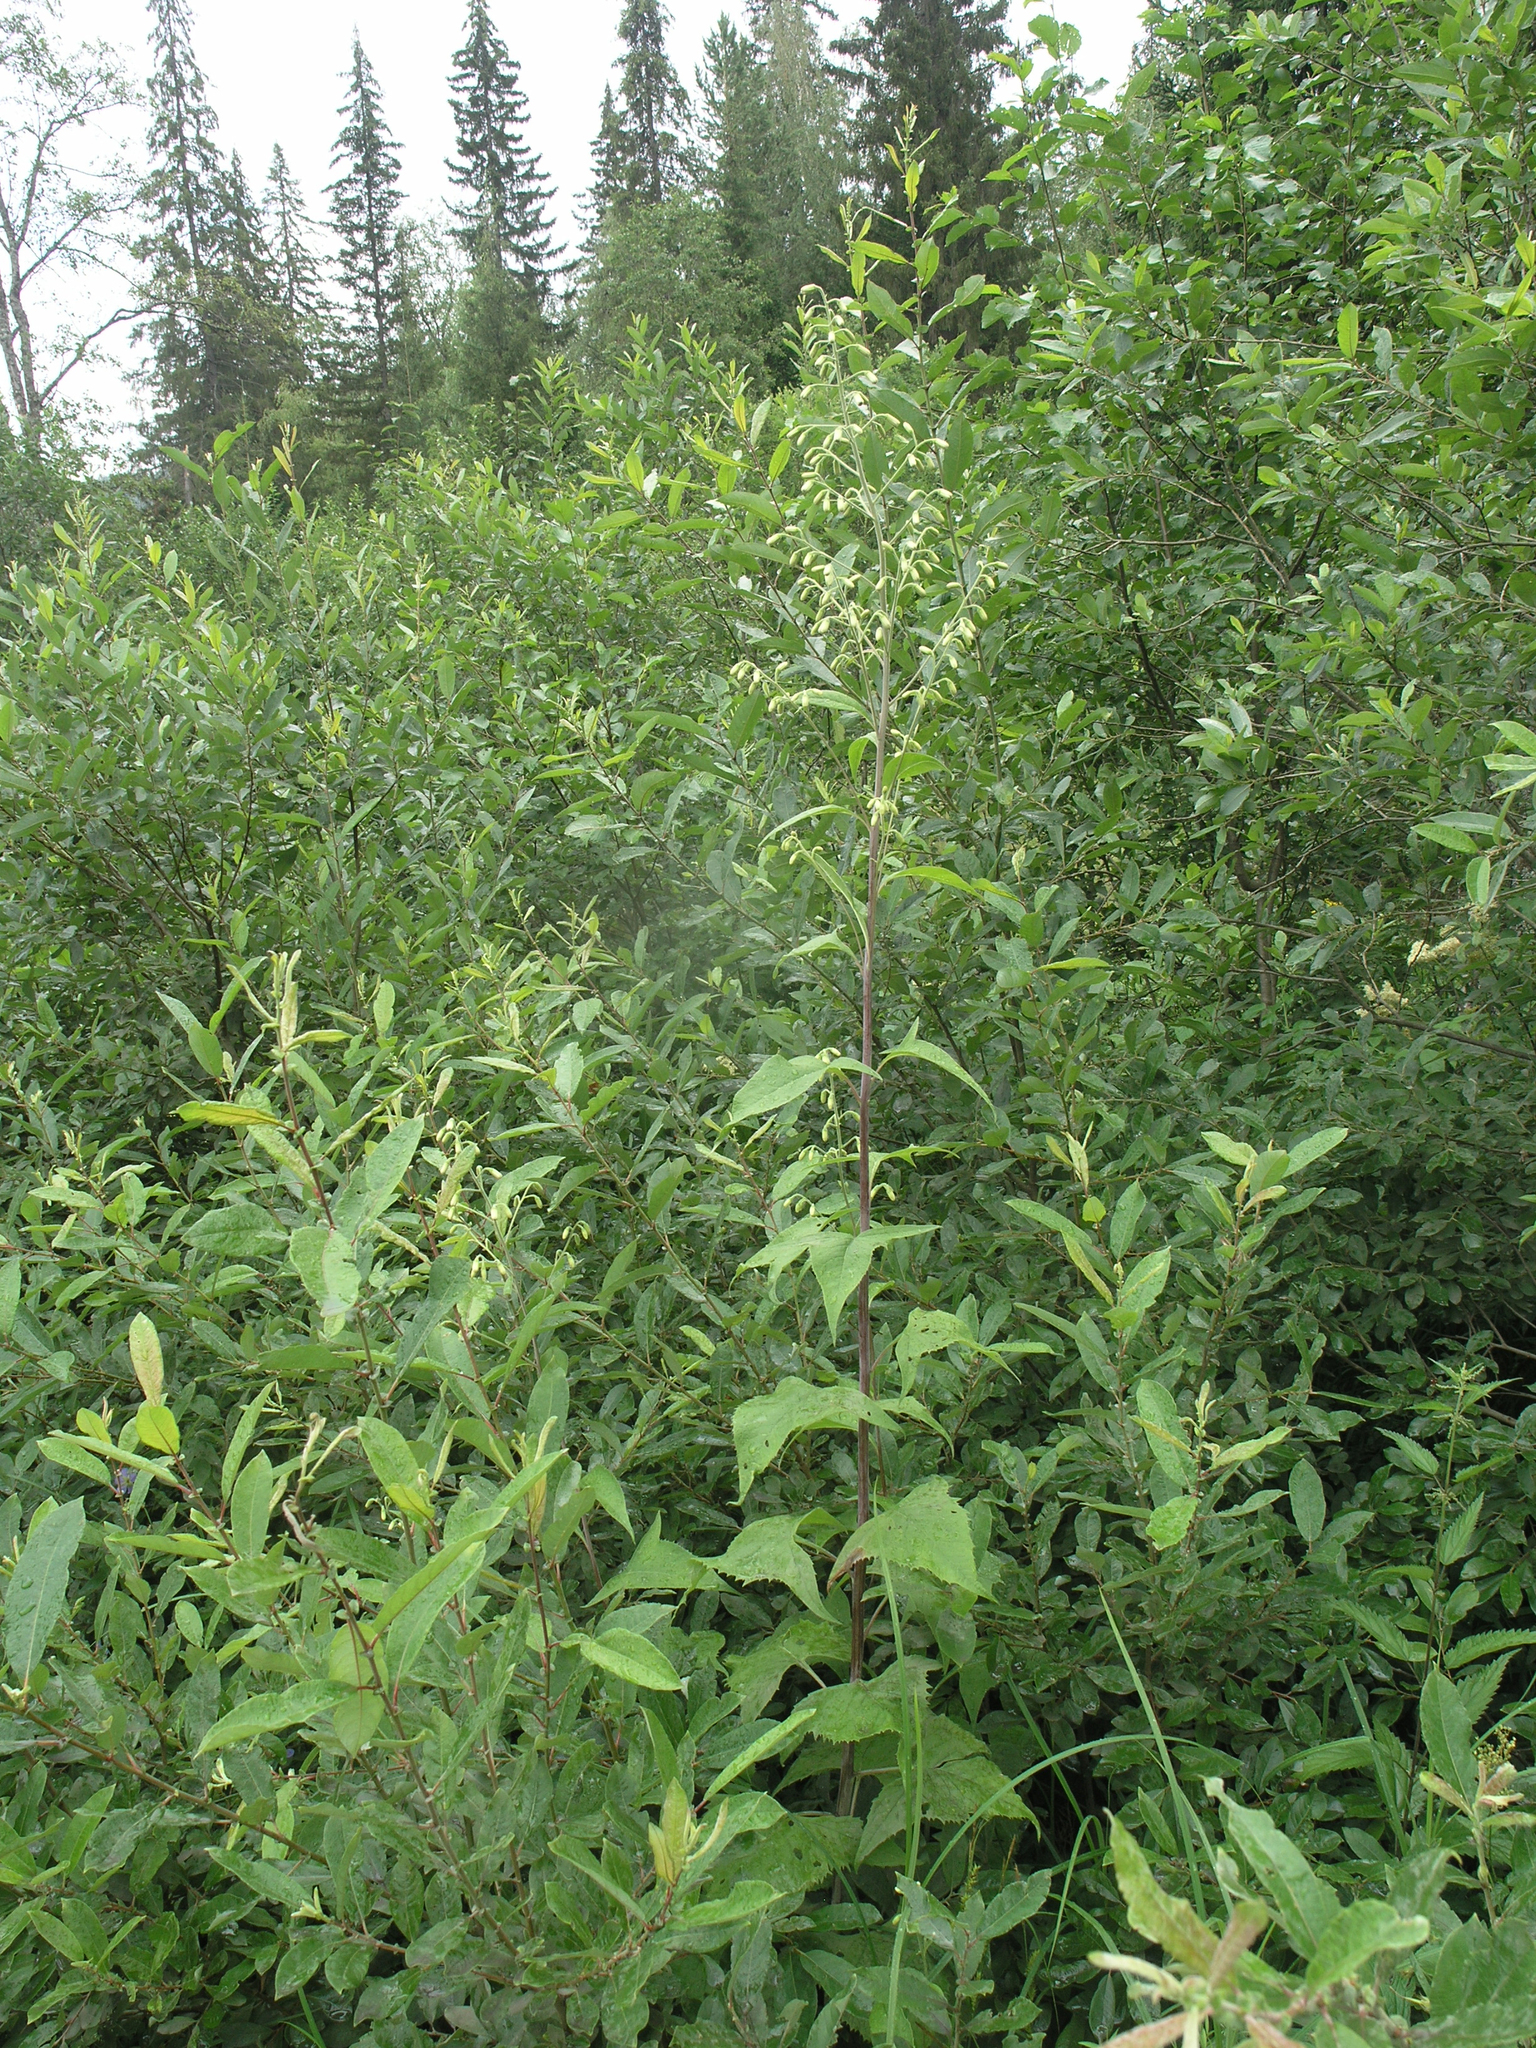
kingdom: Plantae
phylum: Tracheophyta
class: Magnoliopsida
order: Asterales
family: Asteraceae
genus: Parasenecio
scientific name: Parasenecio hastatus
